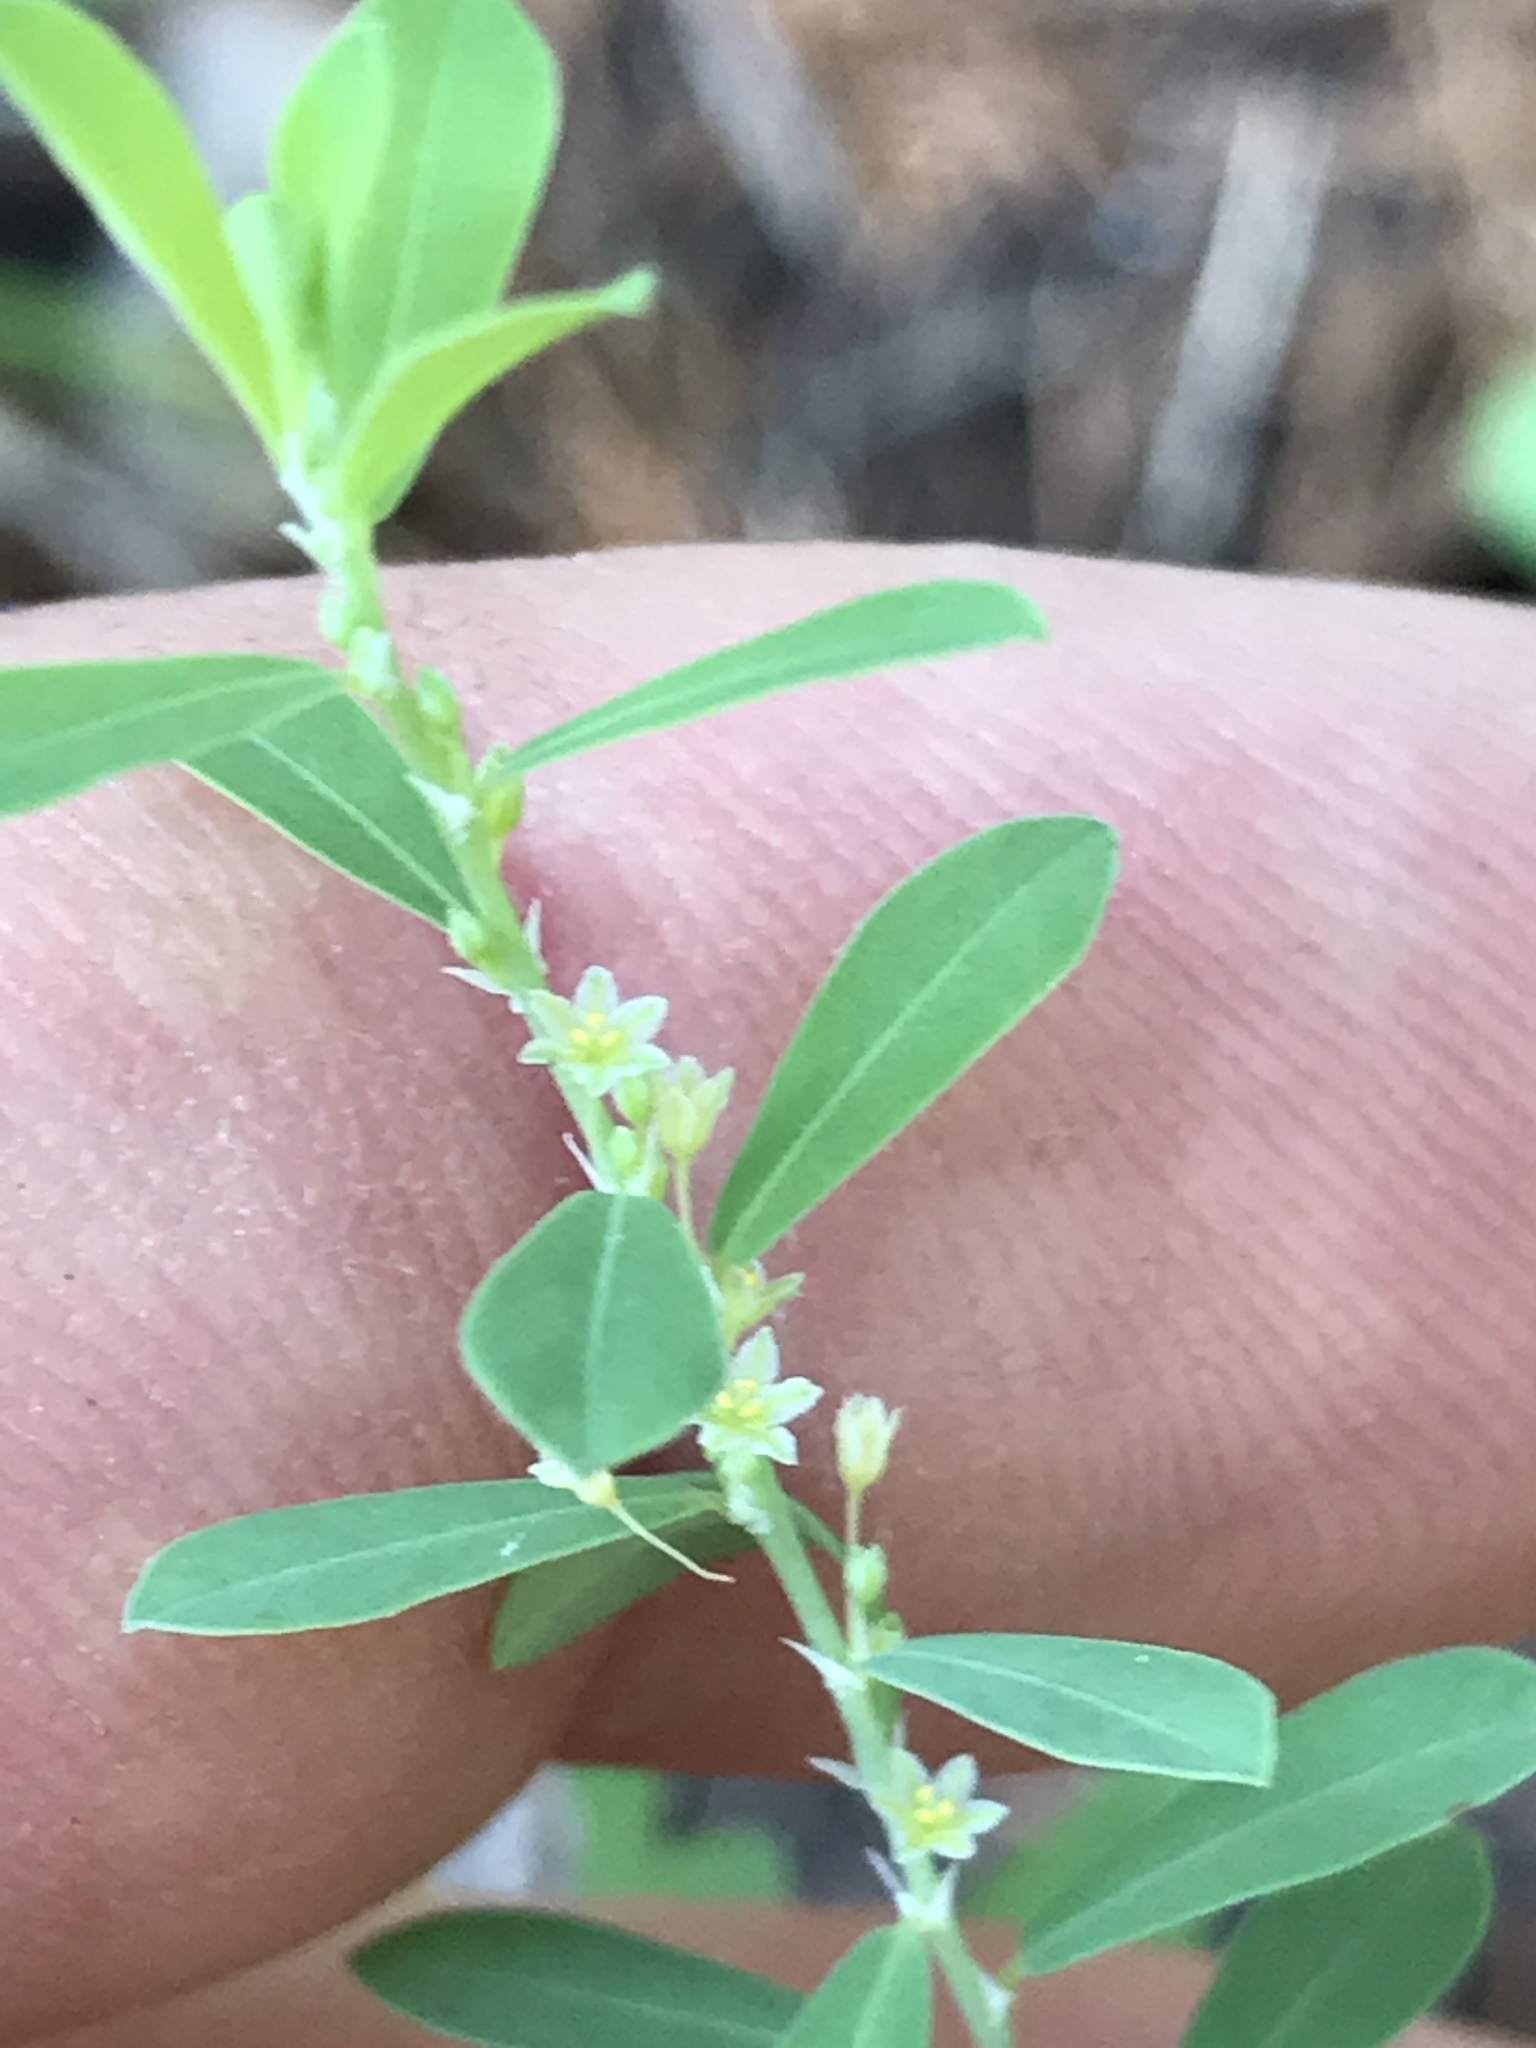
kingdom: Plantae
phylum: Tracheophyta
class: Magnoliopsida
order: Malpighiales
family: Phyllanthaceae
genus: Phyllanthus
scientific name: Phyllanthus polygonoides
